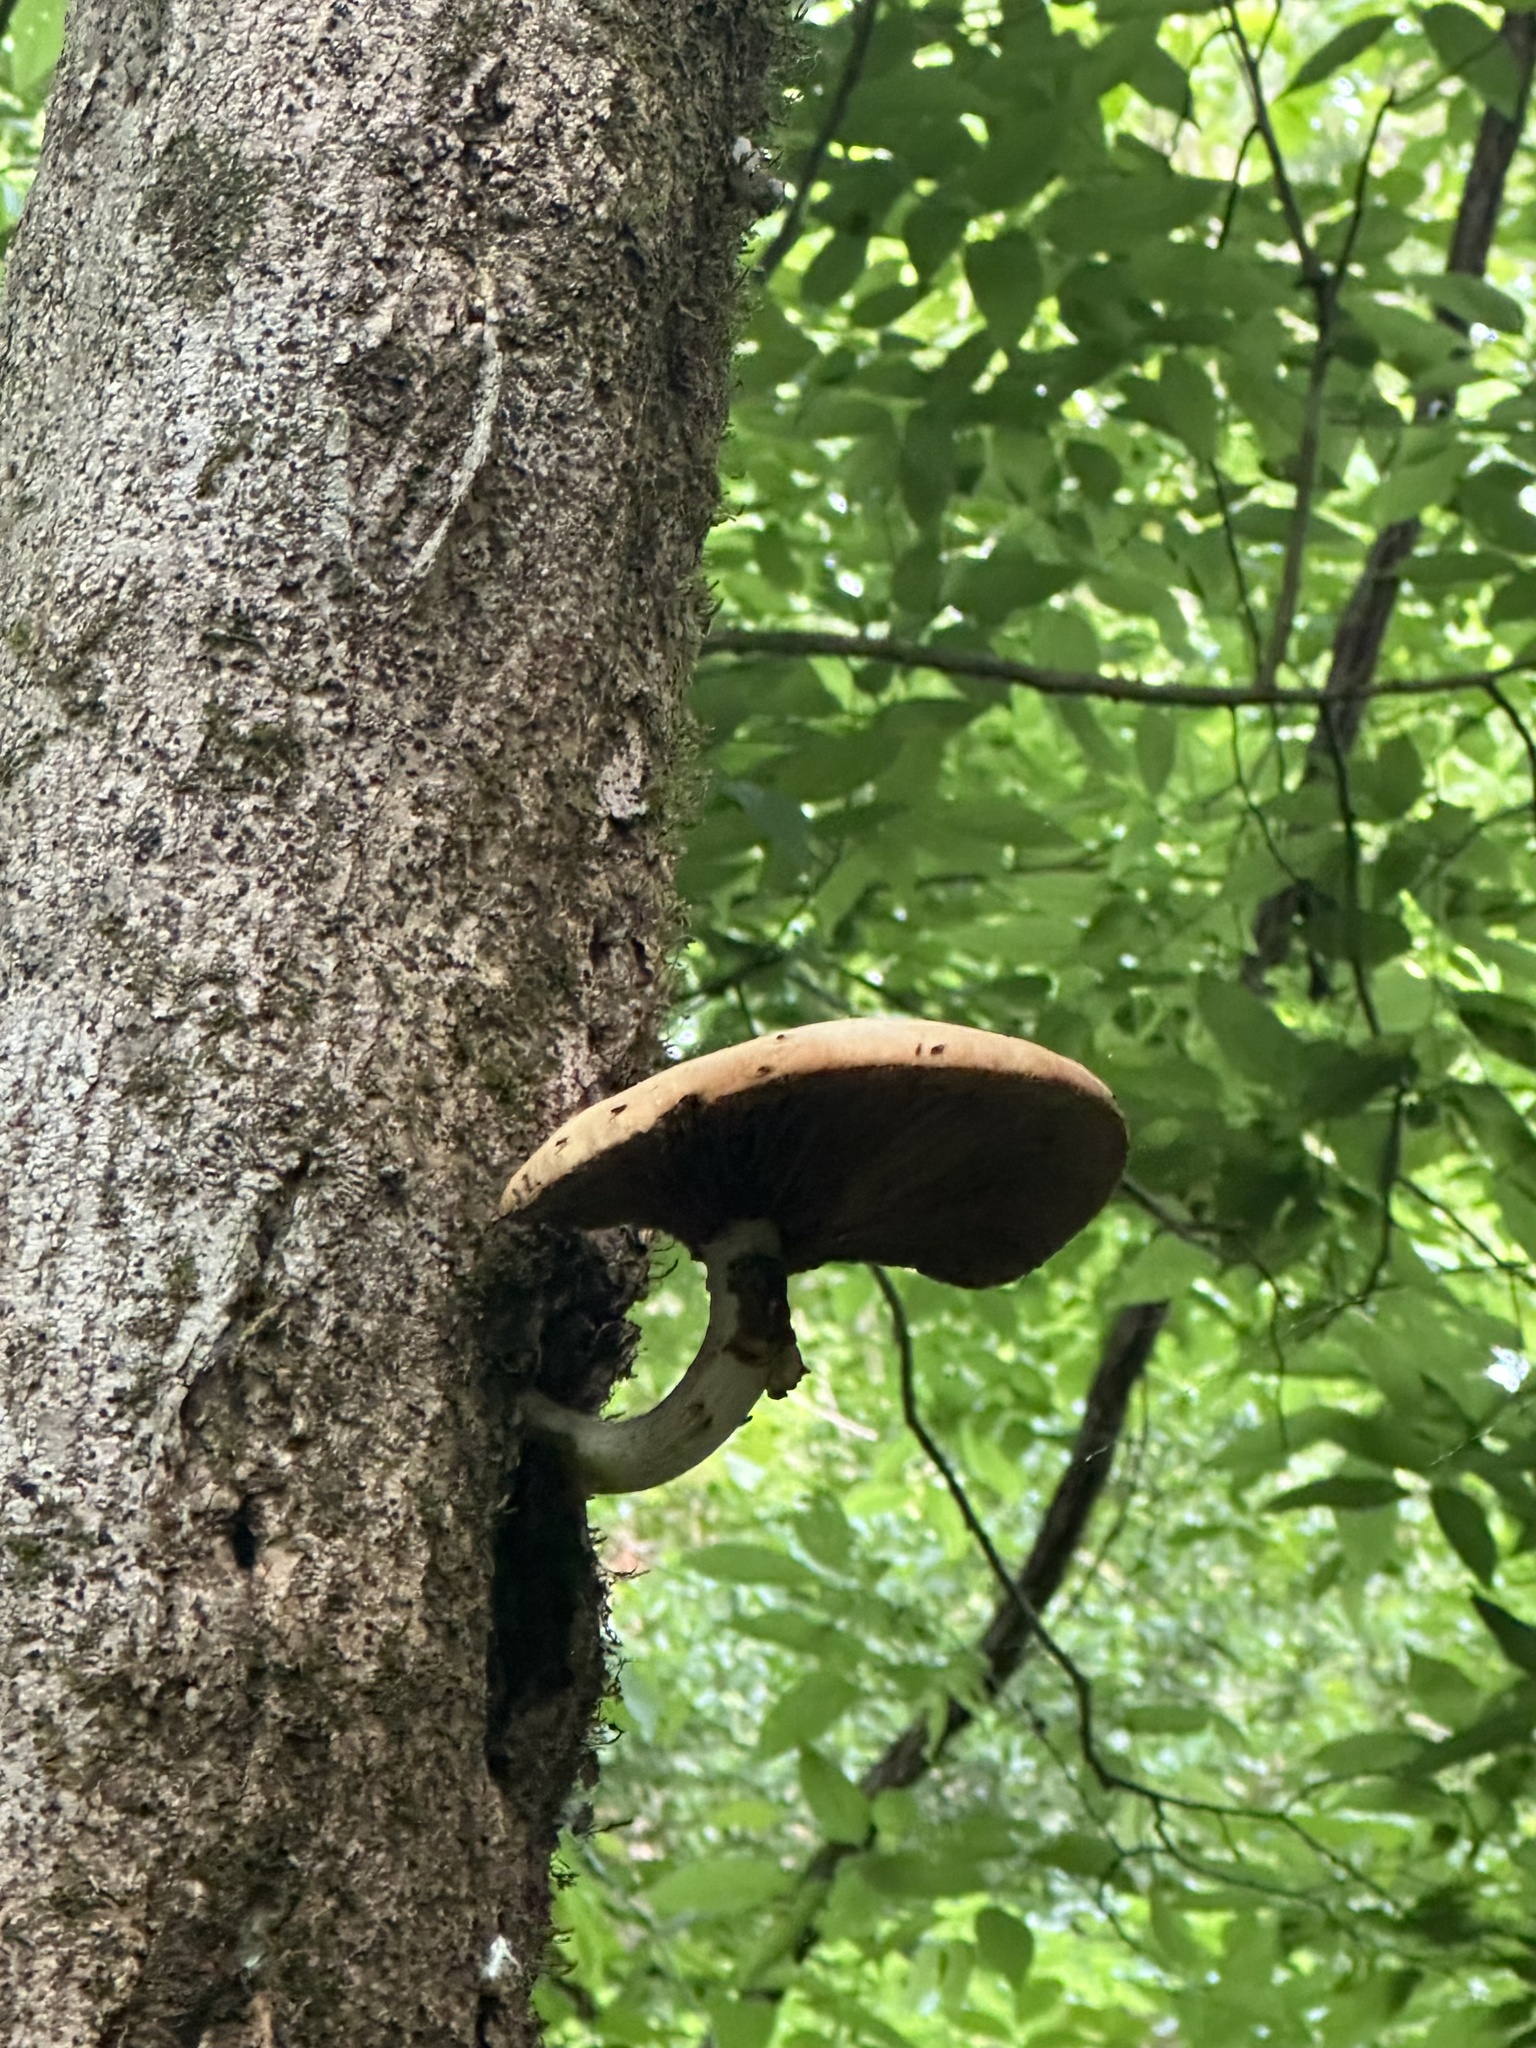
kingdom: Fungi
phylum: Basidiomycota
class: Agaricomycetes
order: Agaricales
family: Tubariaceae
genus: Cyclocybe
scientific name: Cyclocybe cylindracea
